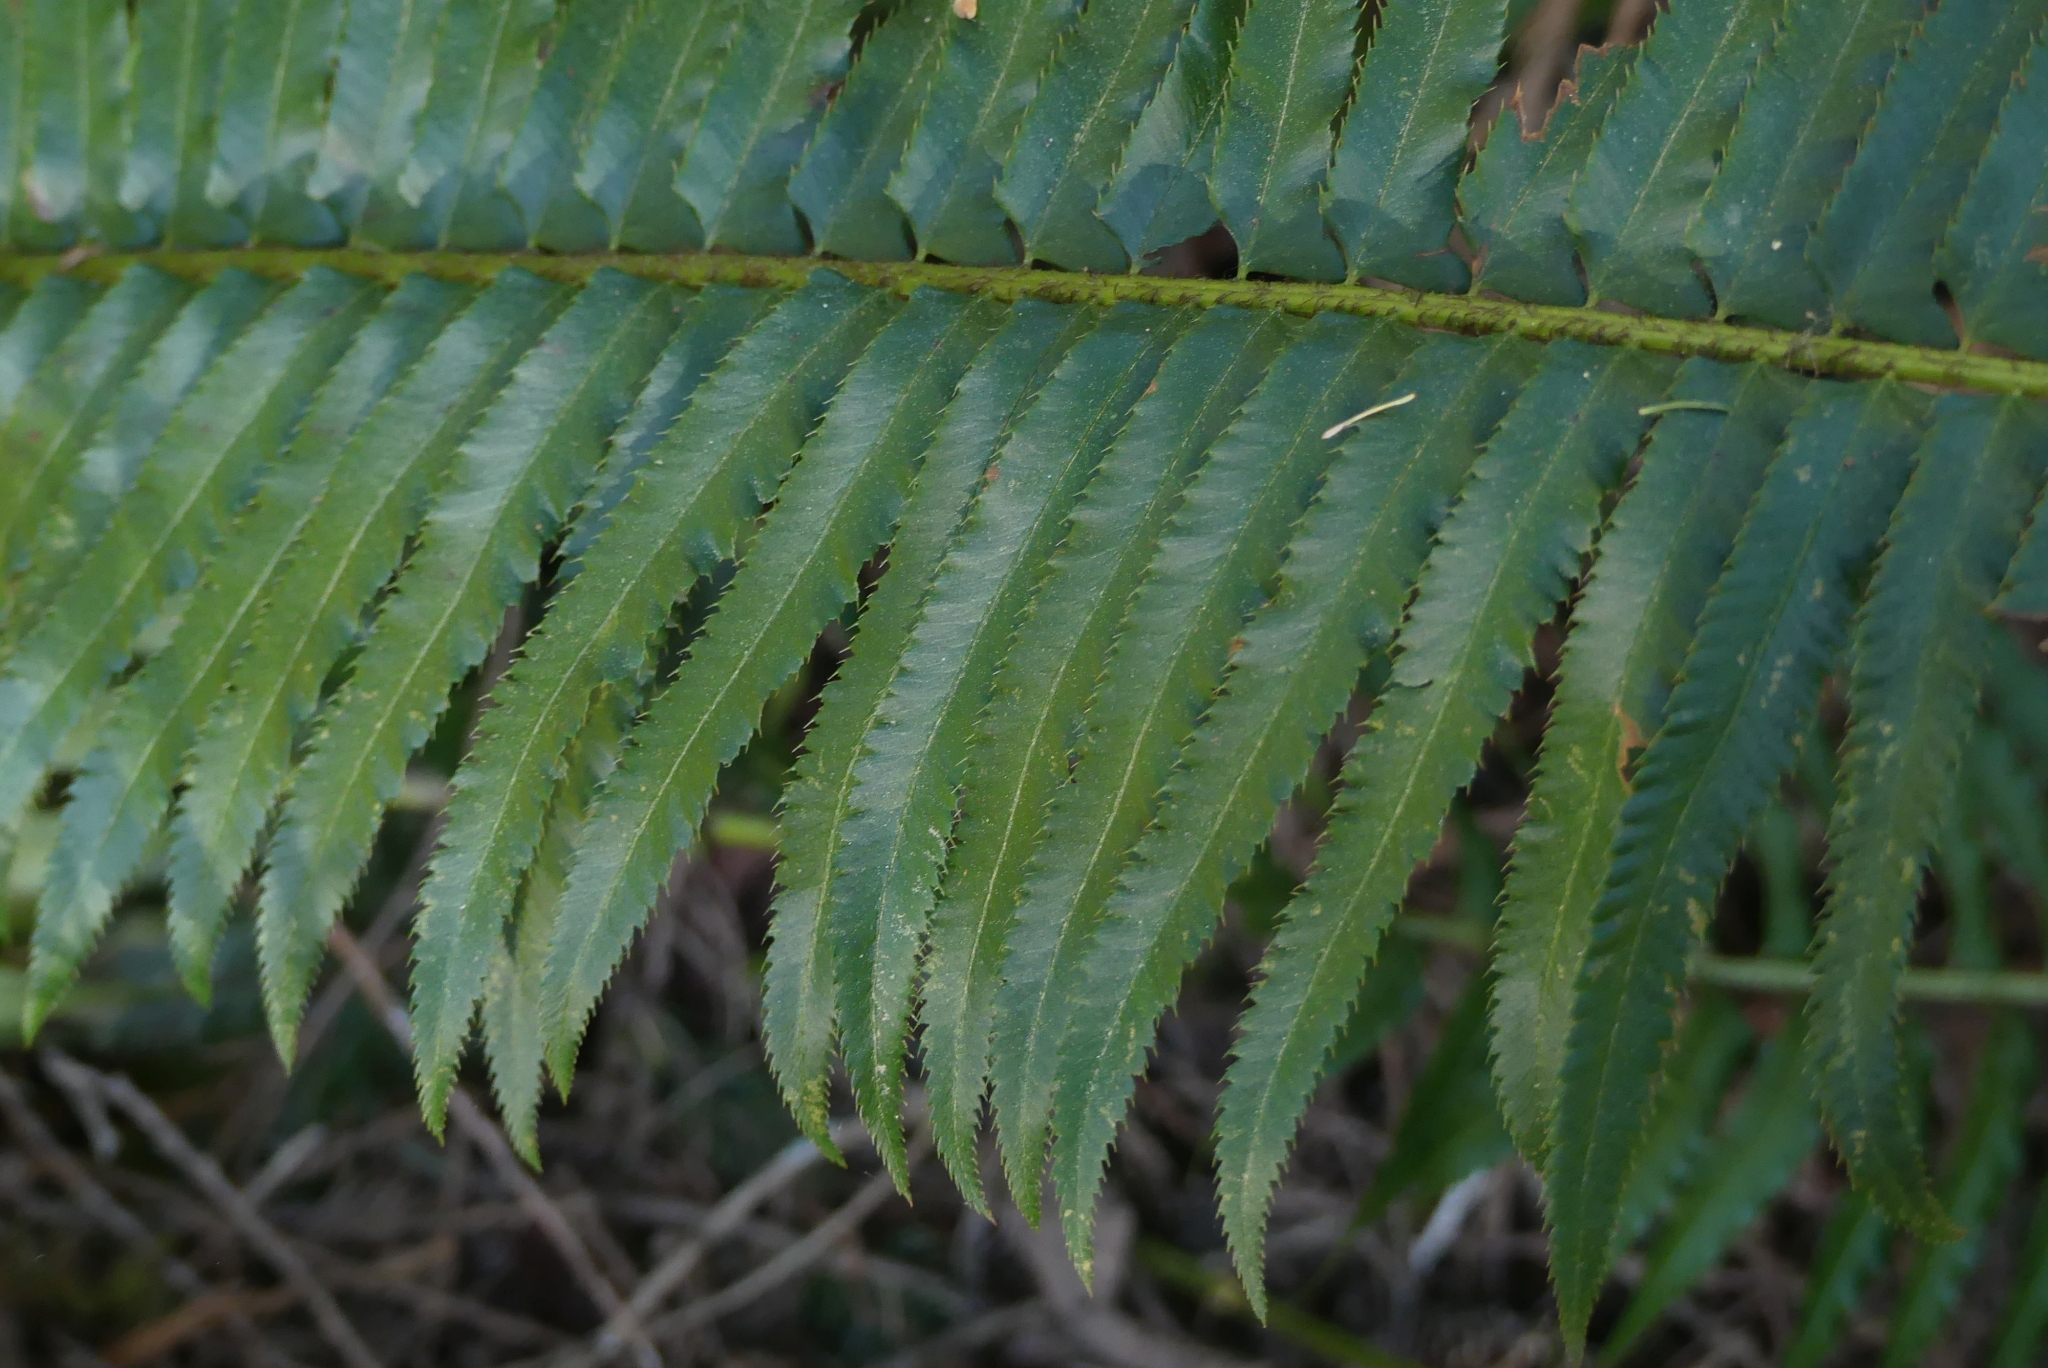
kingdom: Plantae
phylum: Tracheophyta
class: Polypodiopsida
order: Polypodiales
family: Dryopteridaceae
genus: Polystichum
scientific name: Polystichum munitum
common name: Western sword-fern
